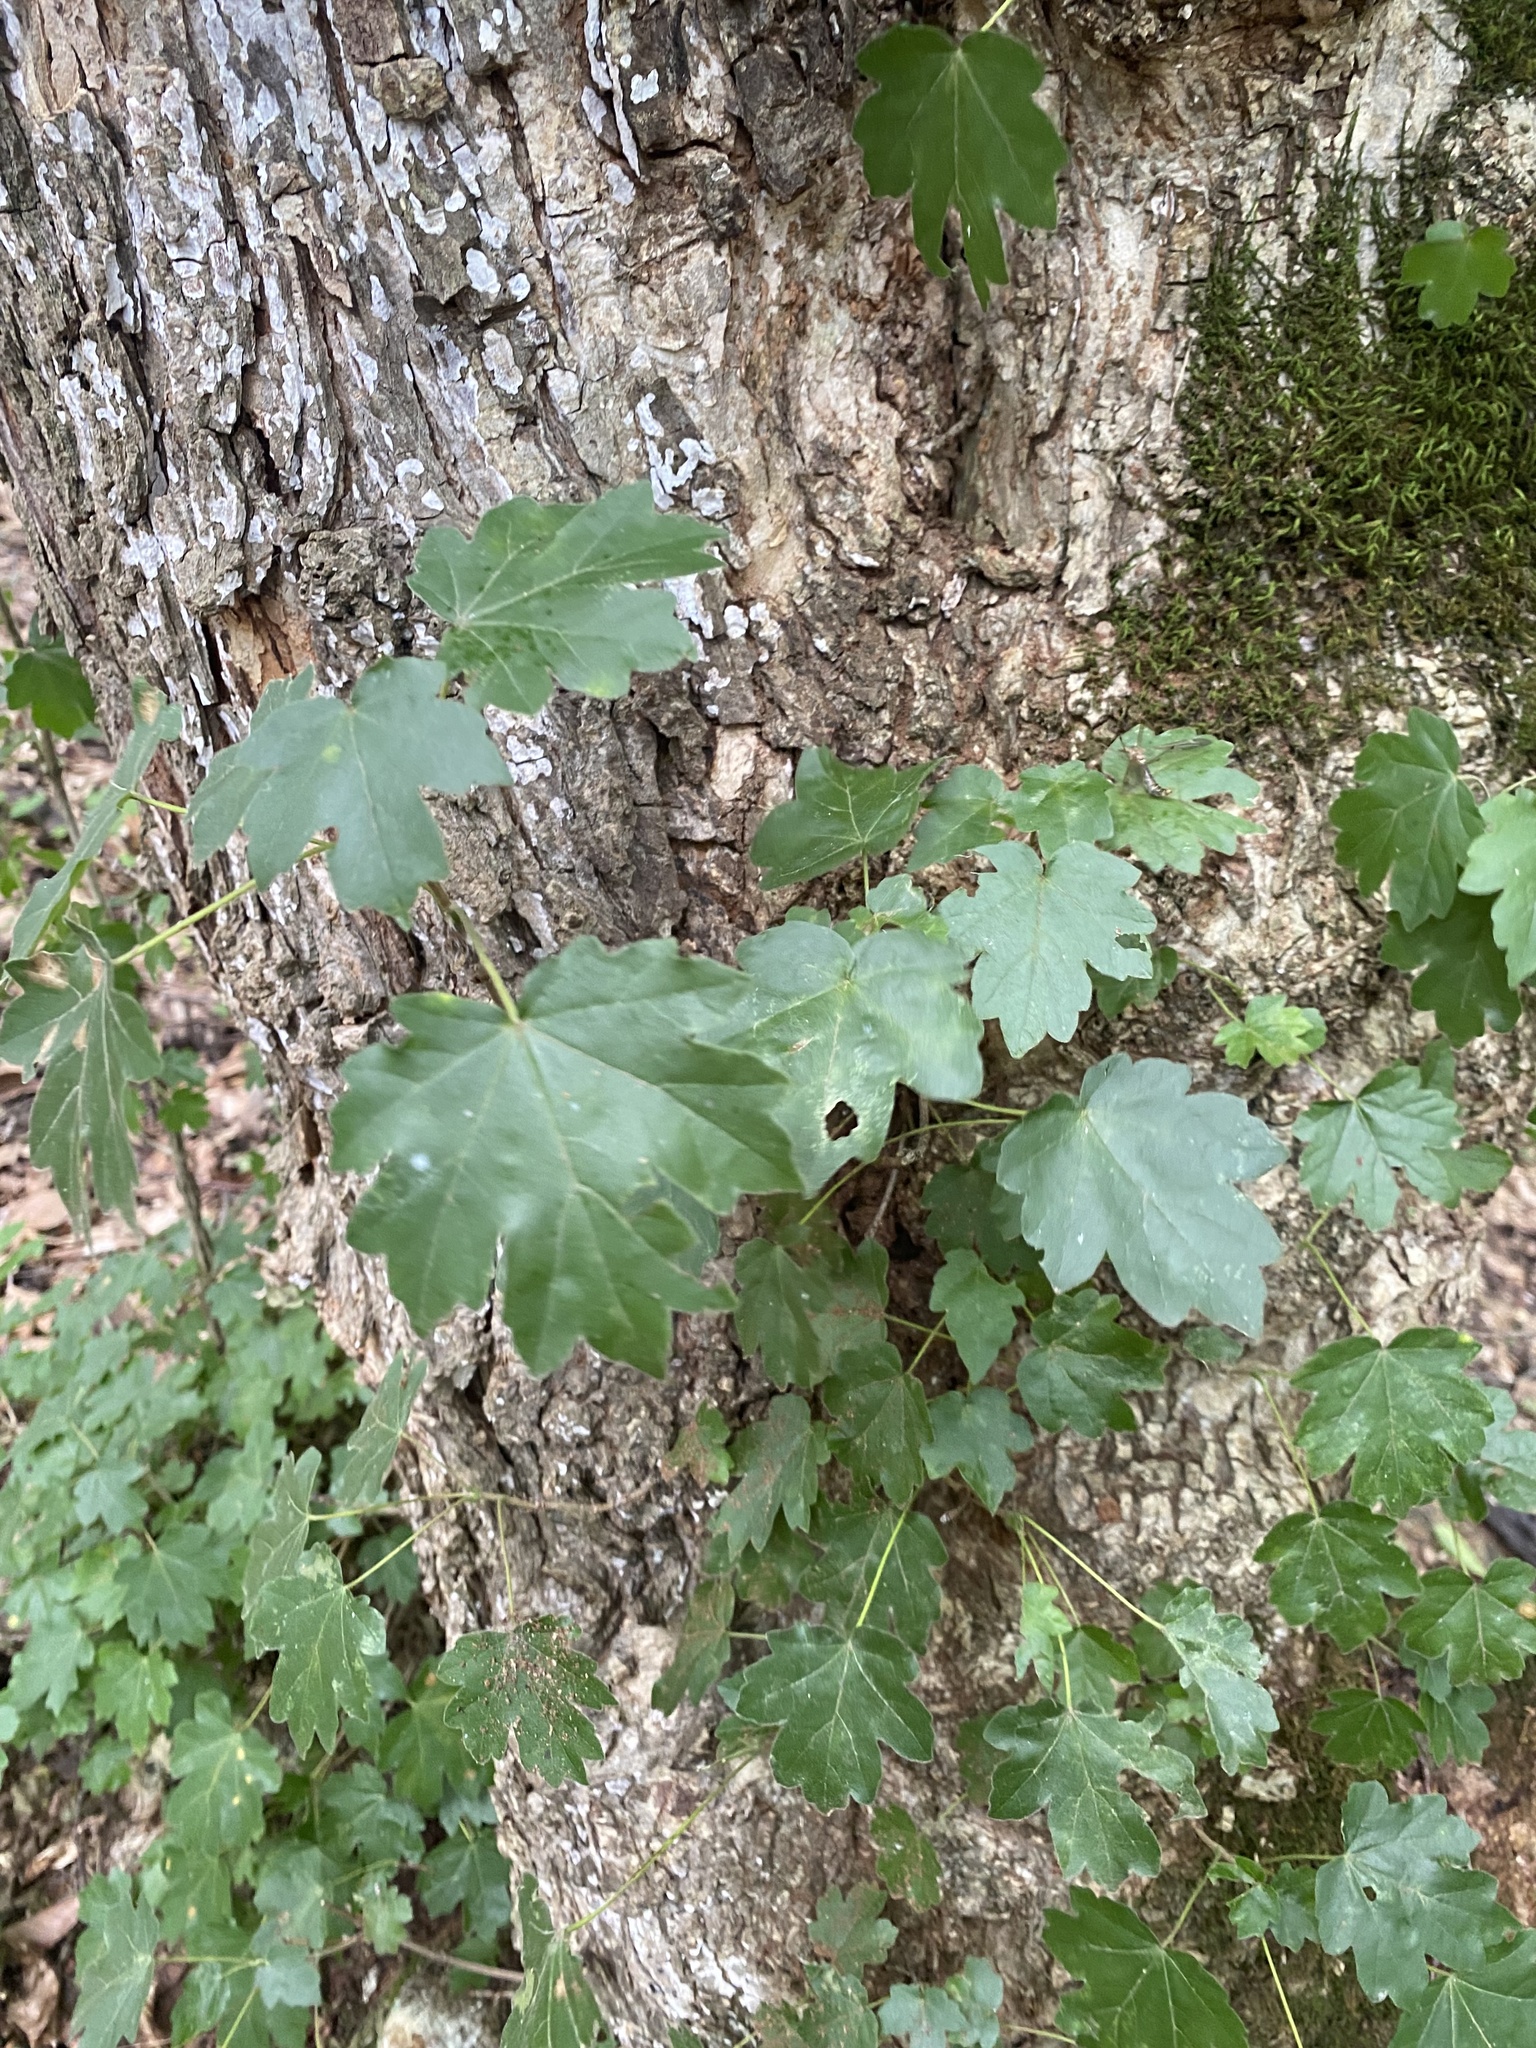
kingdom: Plantae
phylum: Tracheophyta
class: Magnoliopsida
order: Sapindales
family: Sapindaceae
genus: Acer
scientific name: Acer campestre
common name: Field maple
